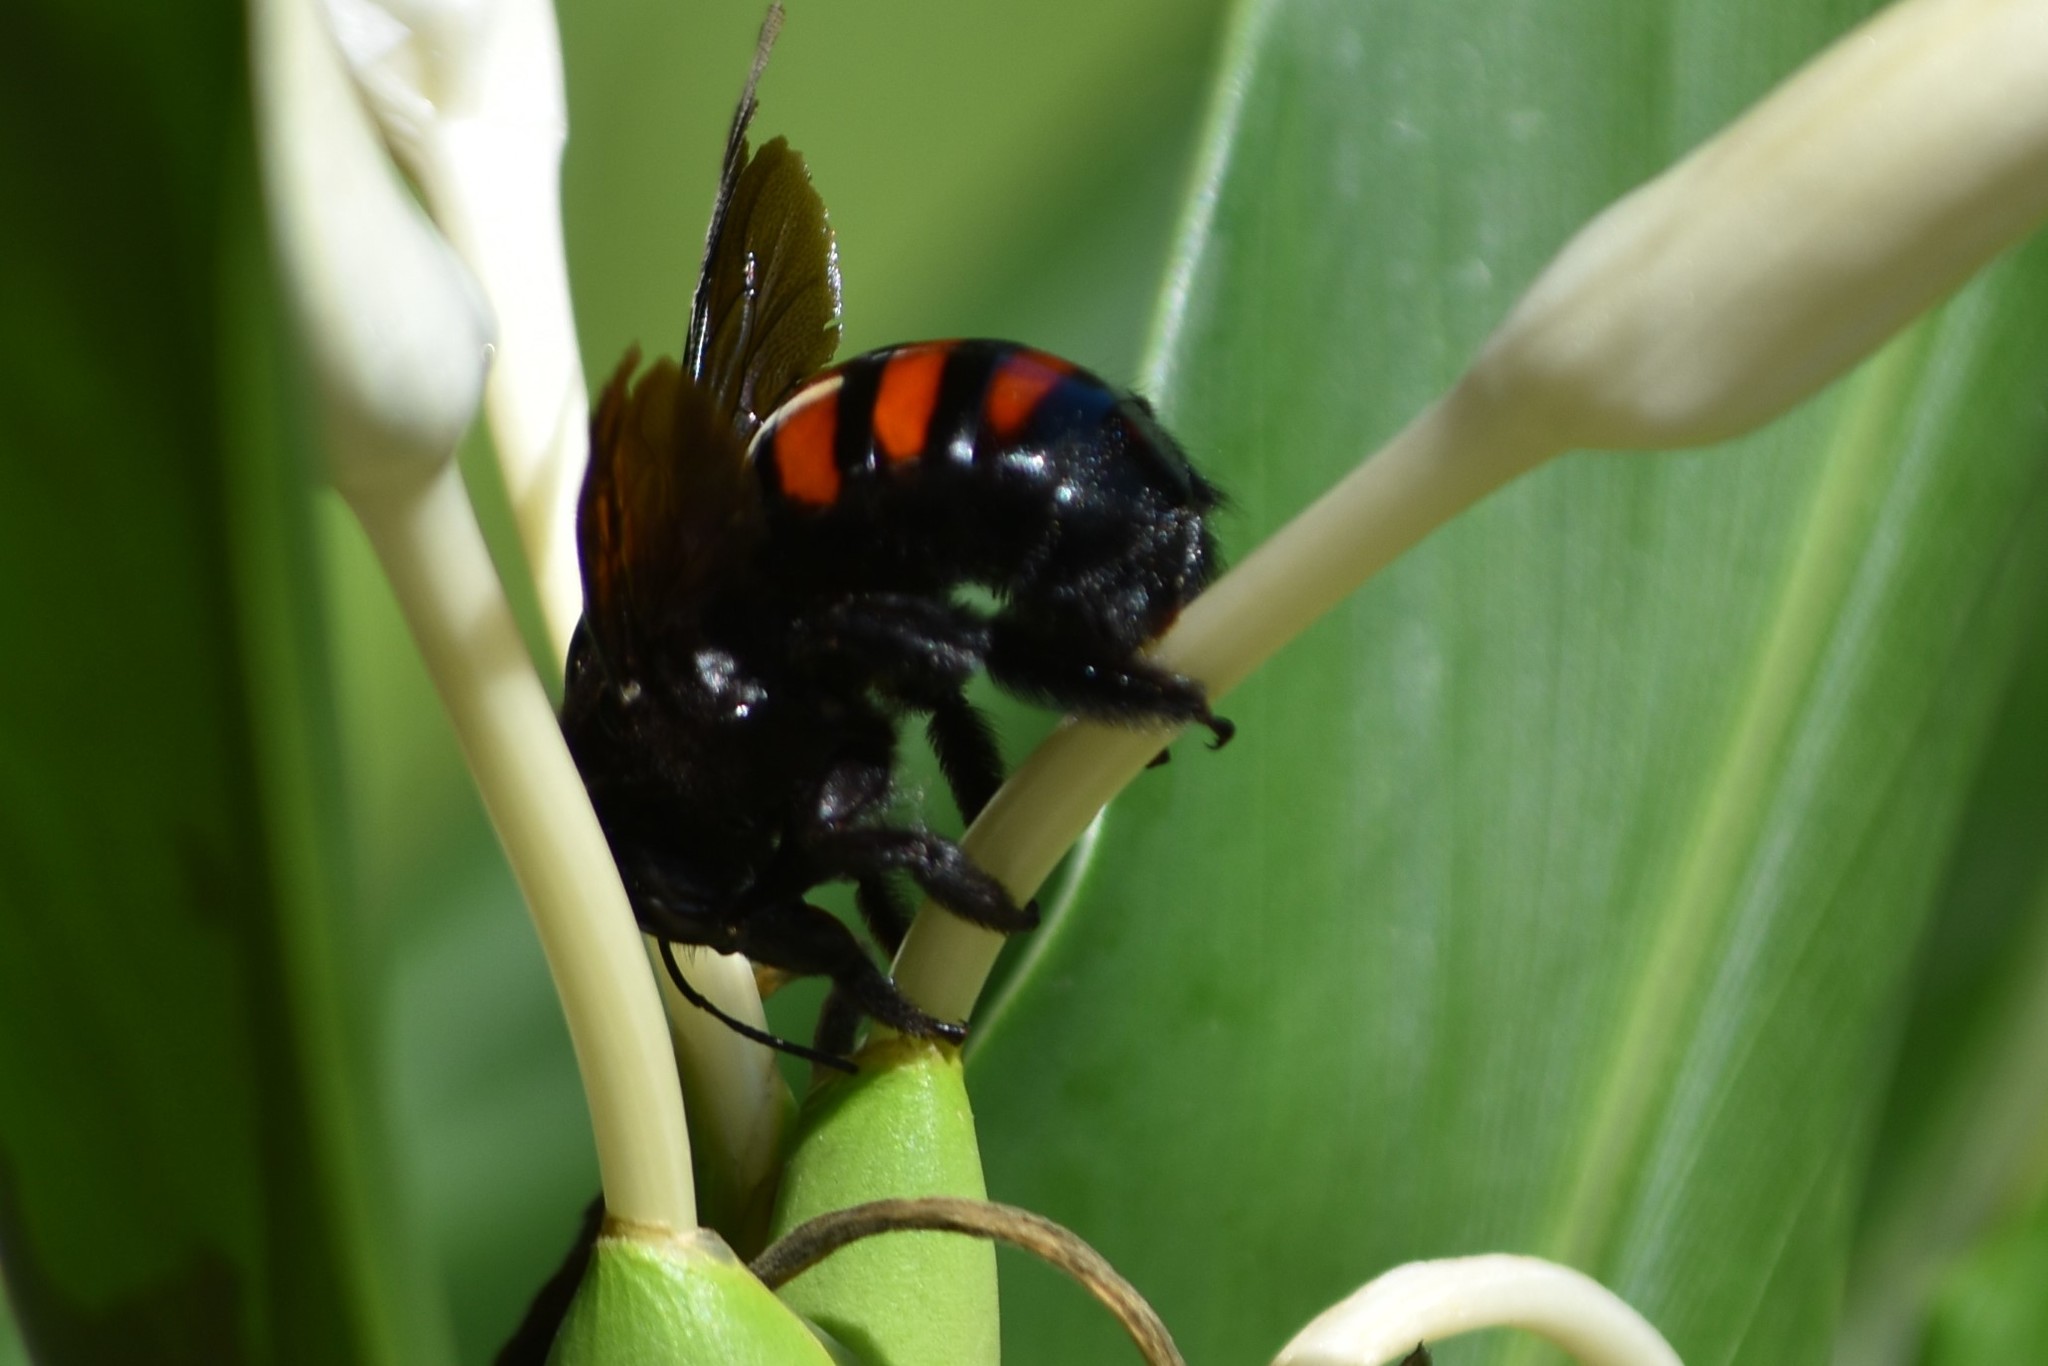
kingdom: Animalia
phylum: Arthropoda
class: Insecta
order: Hymenoptera
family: Apidae
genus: Xylocopa
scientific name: Xylocopa frontalis
